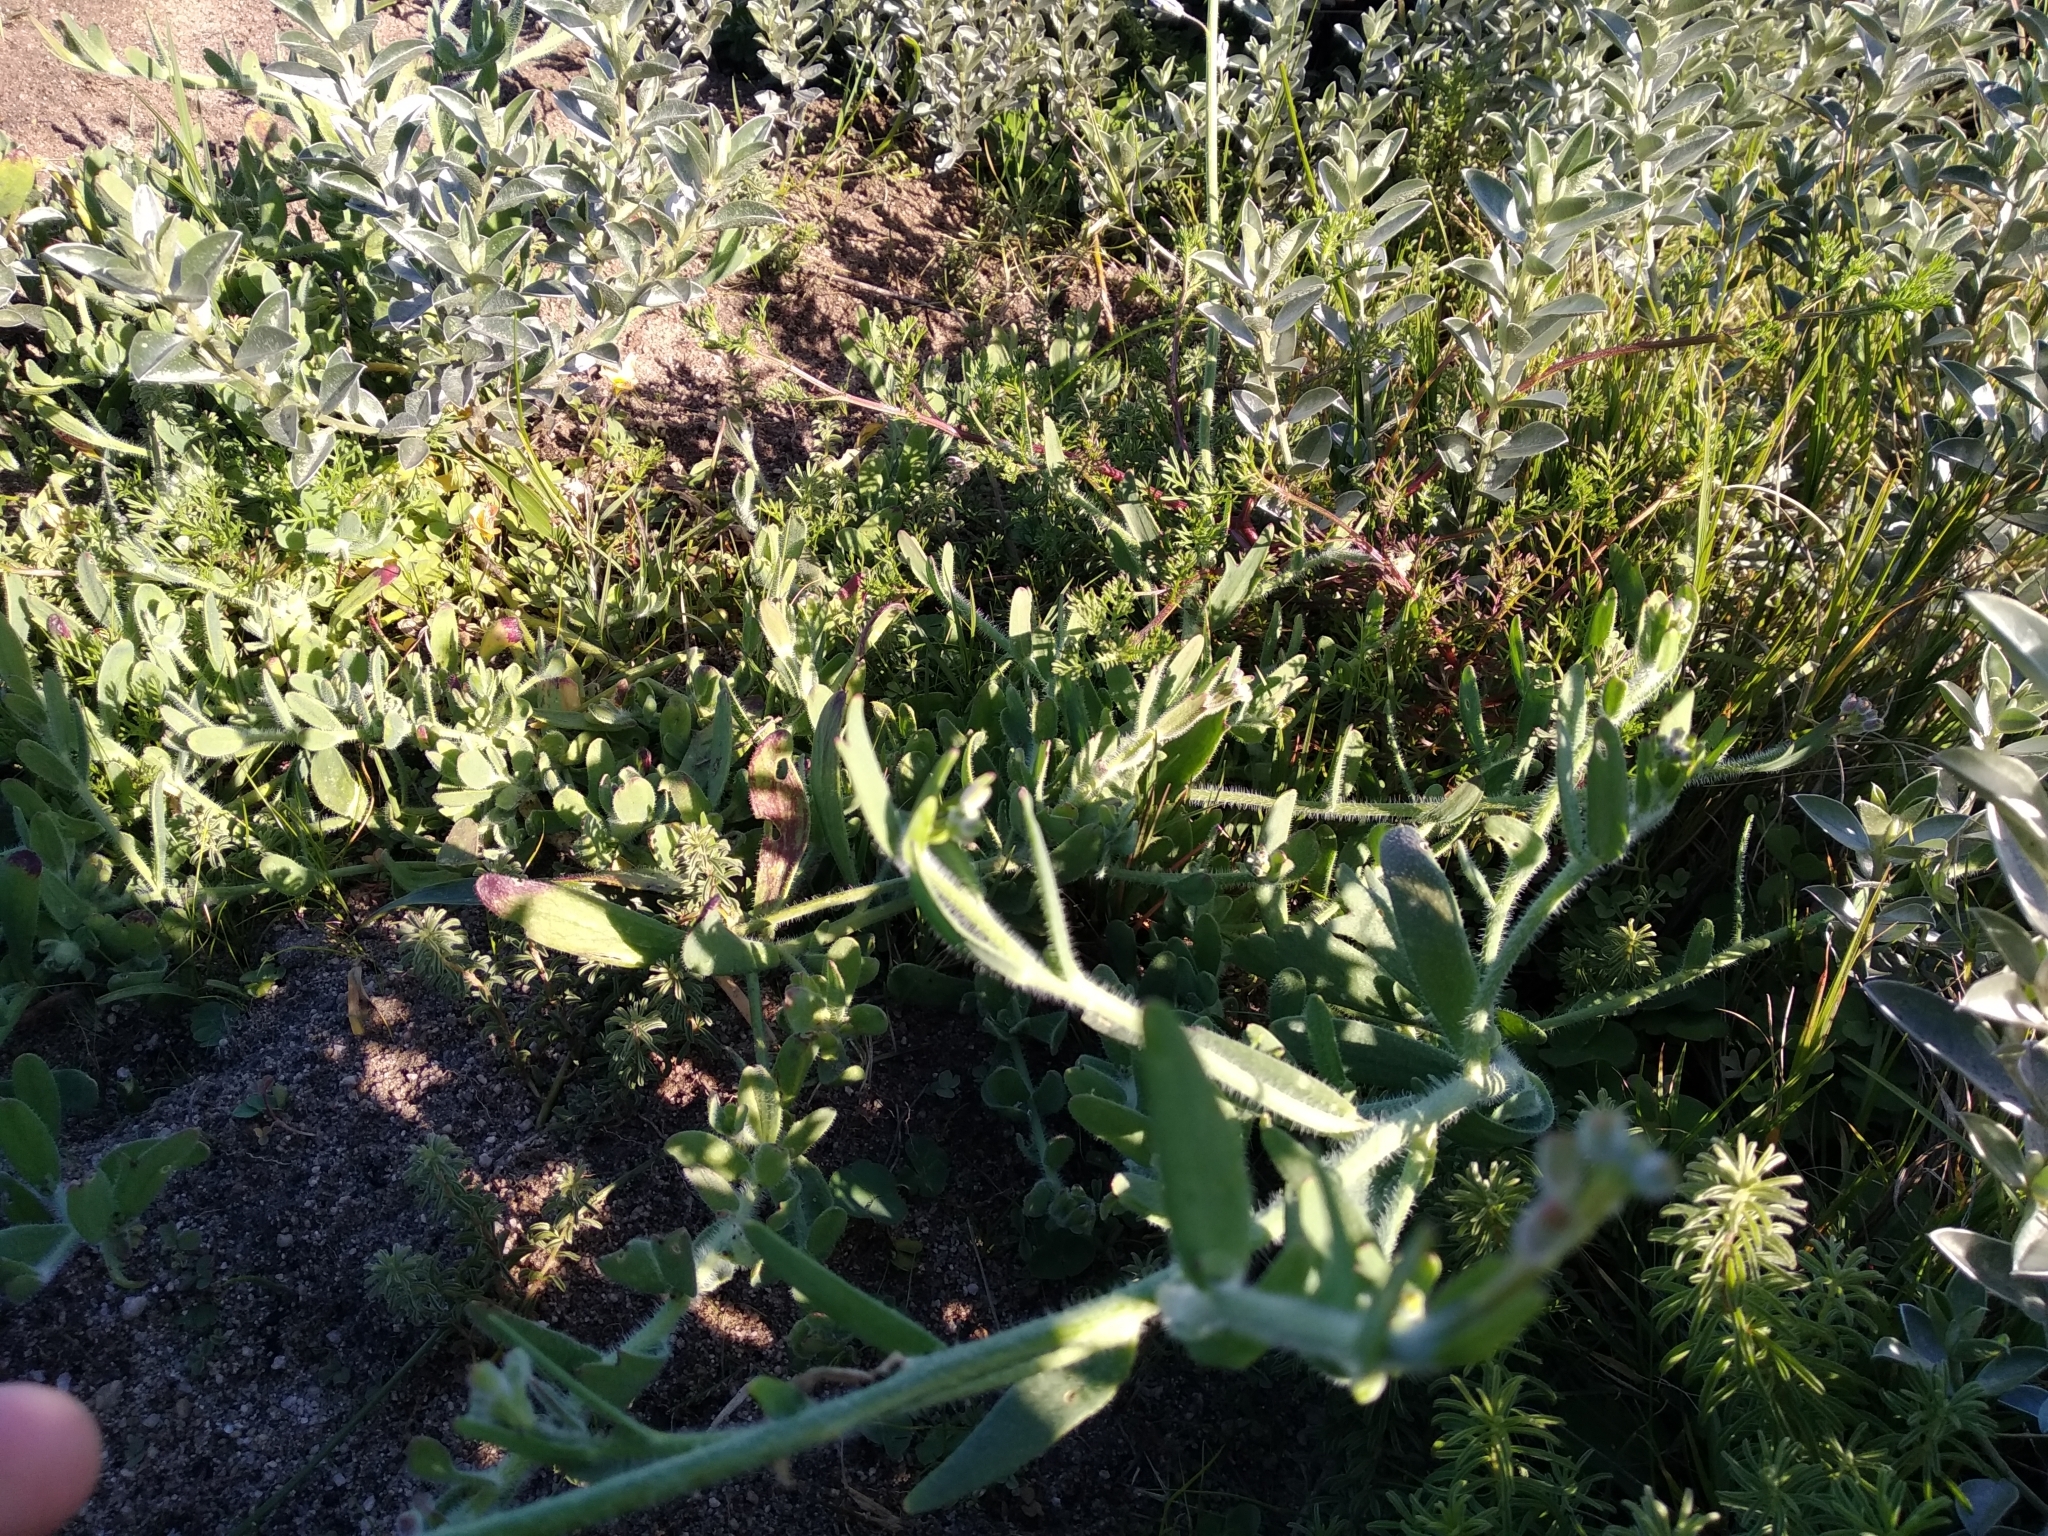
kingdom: Plantae
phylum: Tracheophyta
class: Magnoliopsida
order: Brassicales
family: Brassicaceae
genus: Heliophila
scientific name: Heliophila africana
